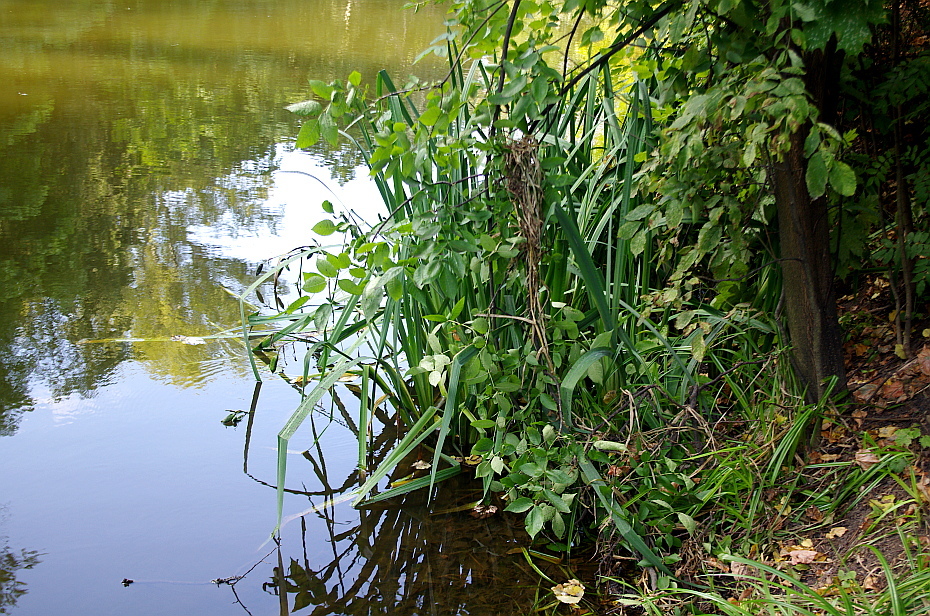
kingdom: Plantae
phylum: Tracheophyta
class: Liliopsida
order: Asparagales
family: Iridaceae
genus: Iris
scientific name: Iris pseudacorus
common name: Yellow flag
